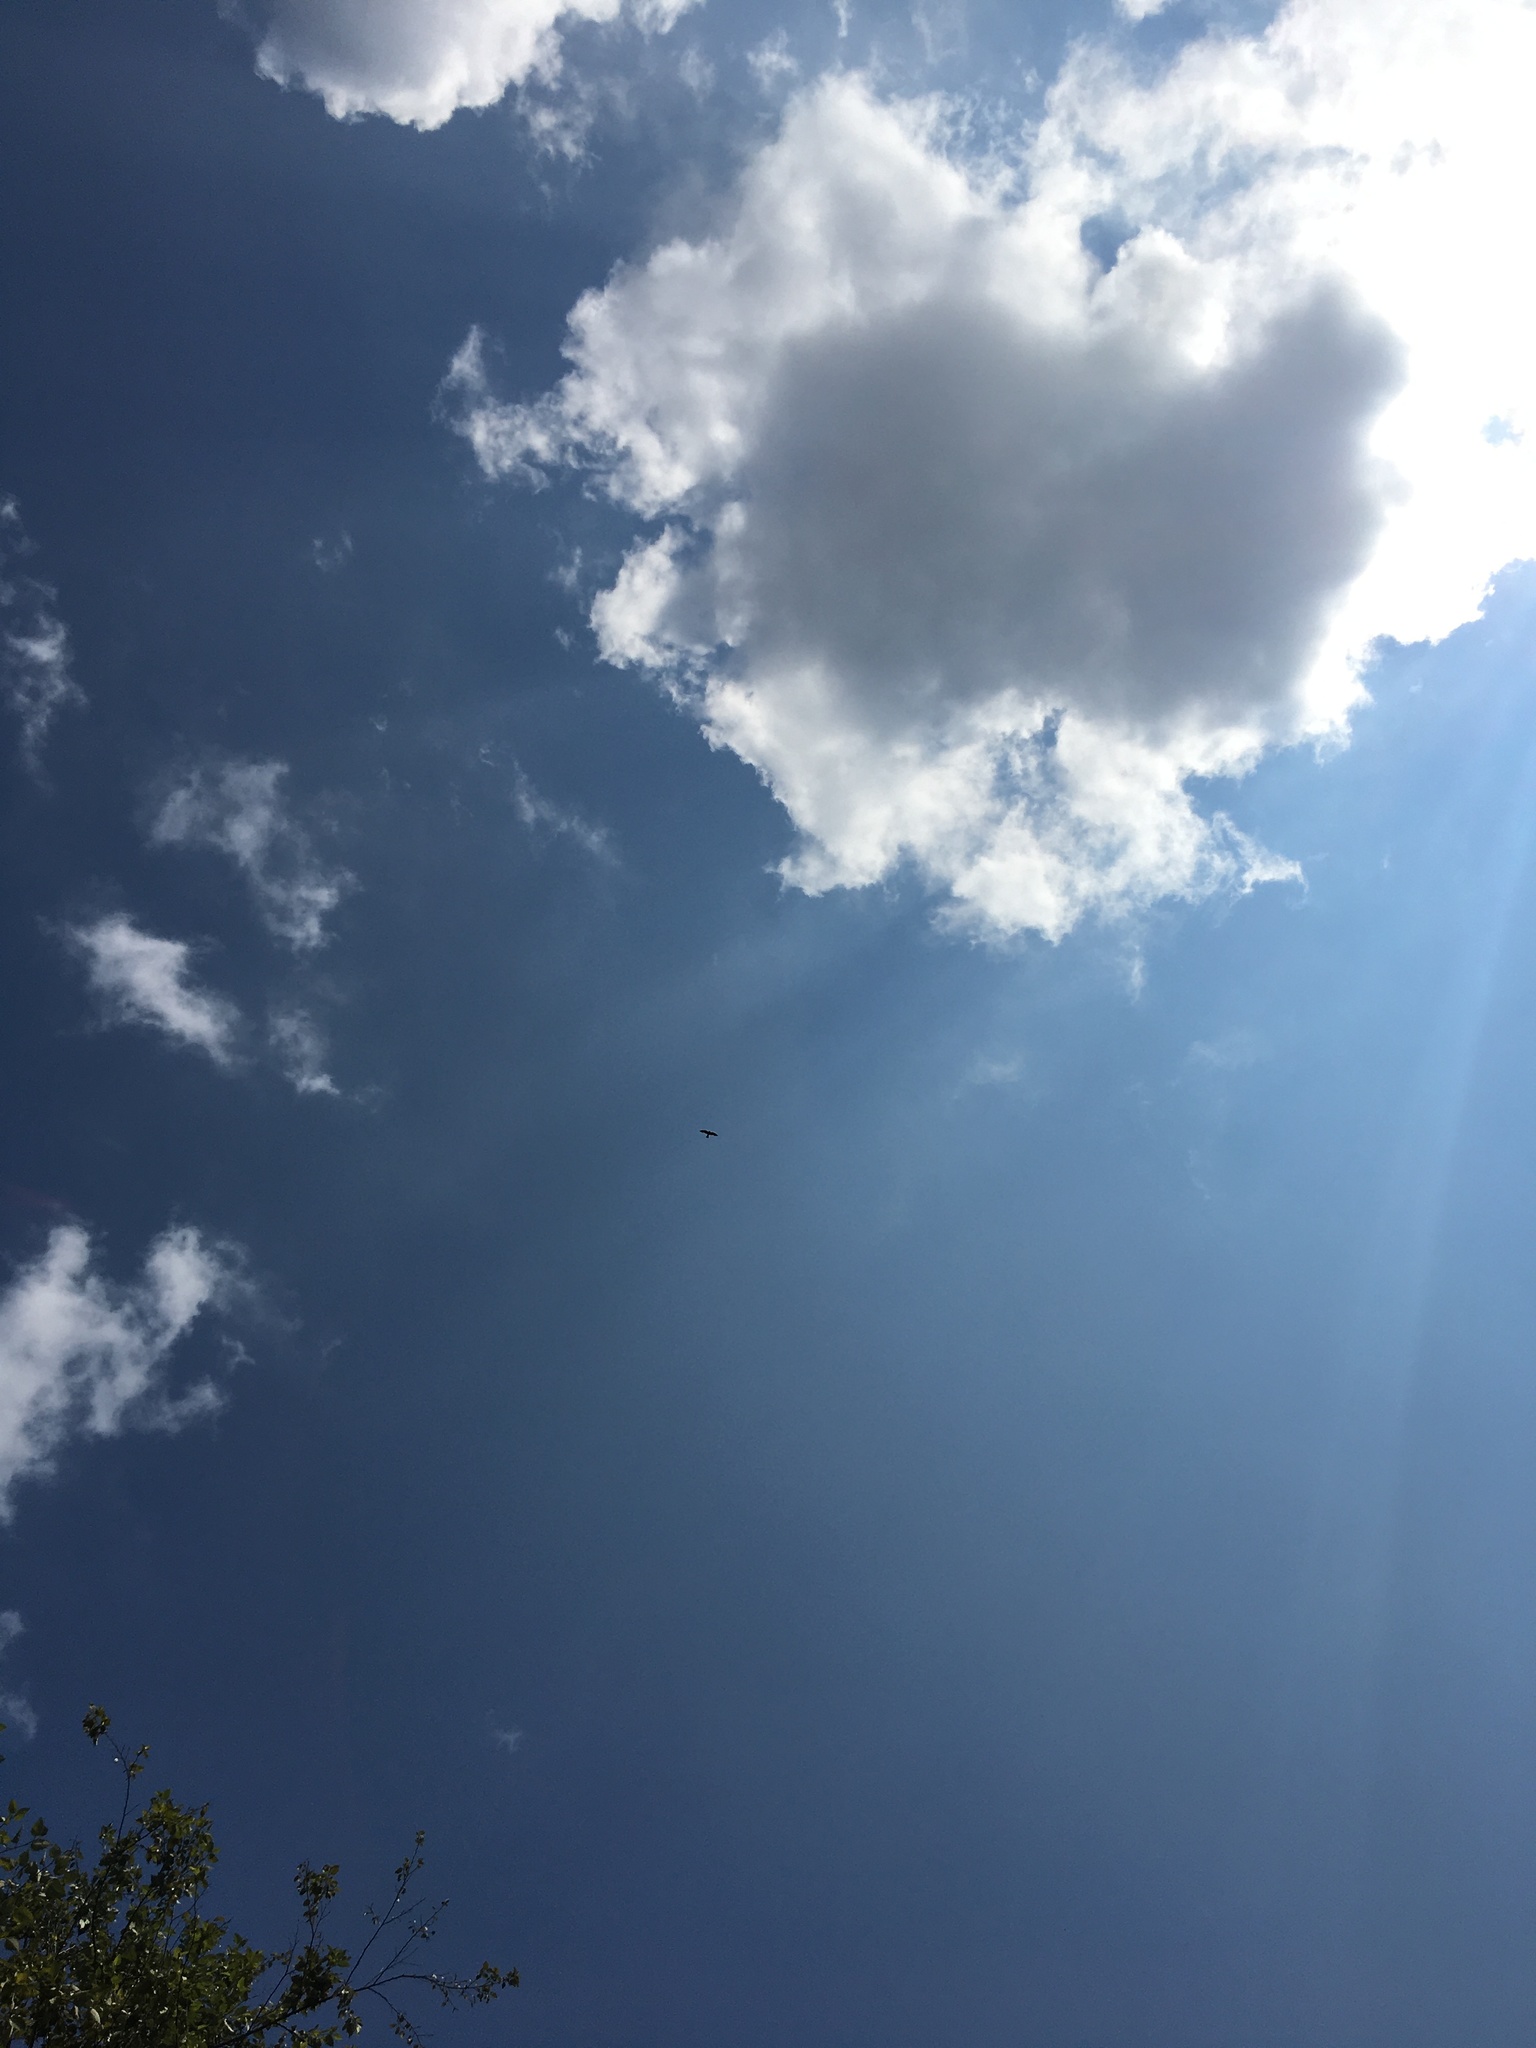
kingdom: Animalia
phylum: Chordata
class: Aves
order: Accipitriformes
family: Accipitridae
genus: Ictinia
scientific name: Ictinia mississippiensis
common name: Mississippi kite
